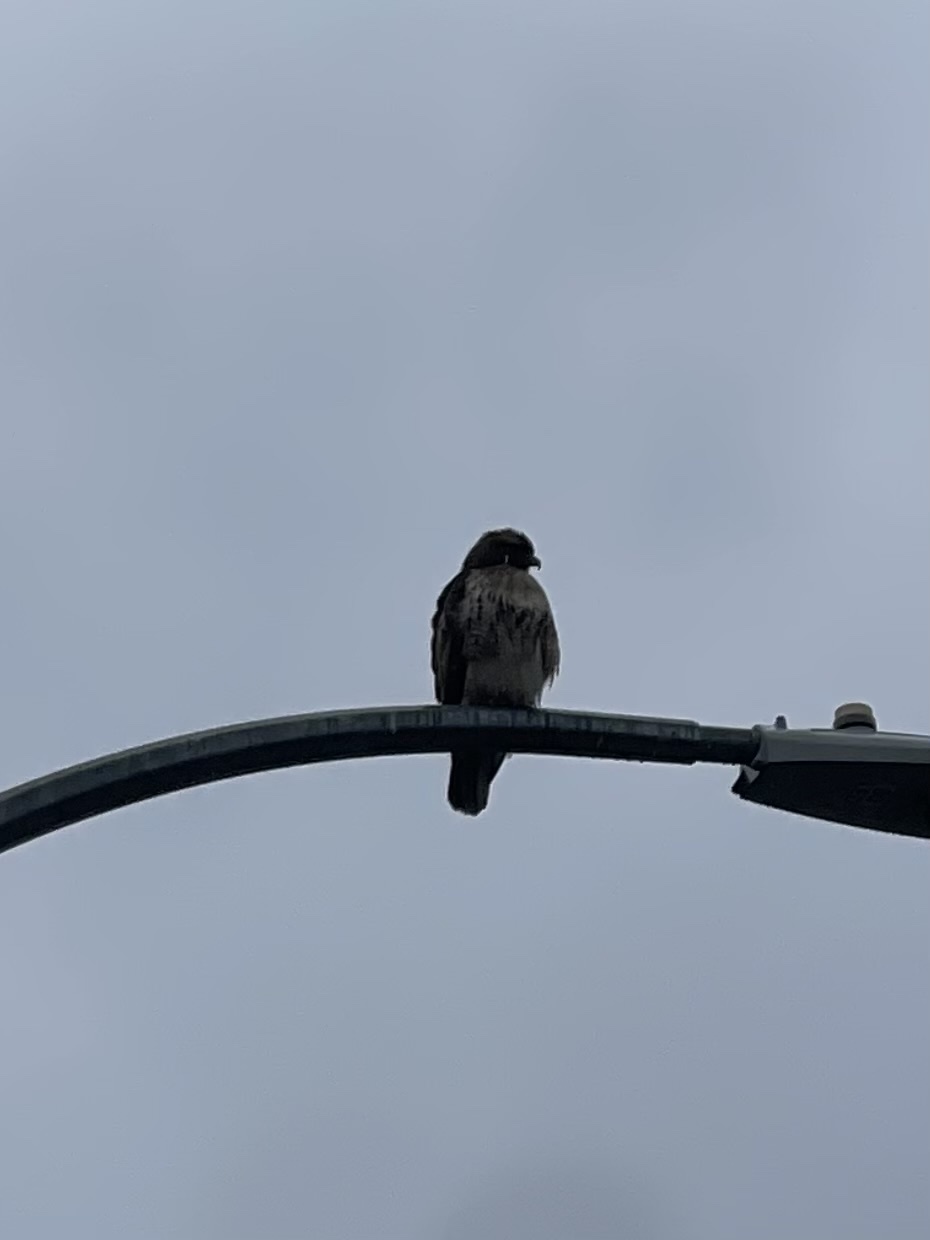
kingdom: Animalia
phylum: Chordata
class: Aves
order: Accipitriformes
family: Accipitridae
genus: Buteo
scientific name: Buteo jamaicensis
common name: Red-tailed hawk
